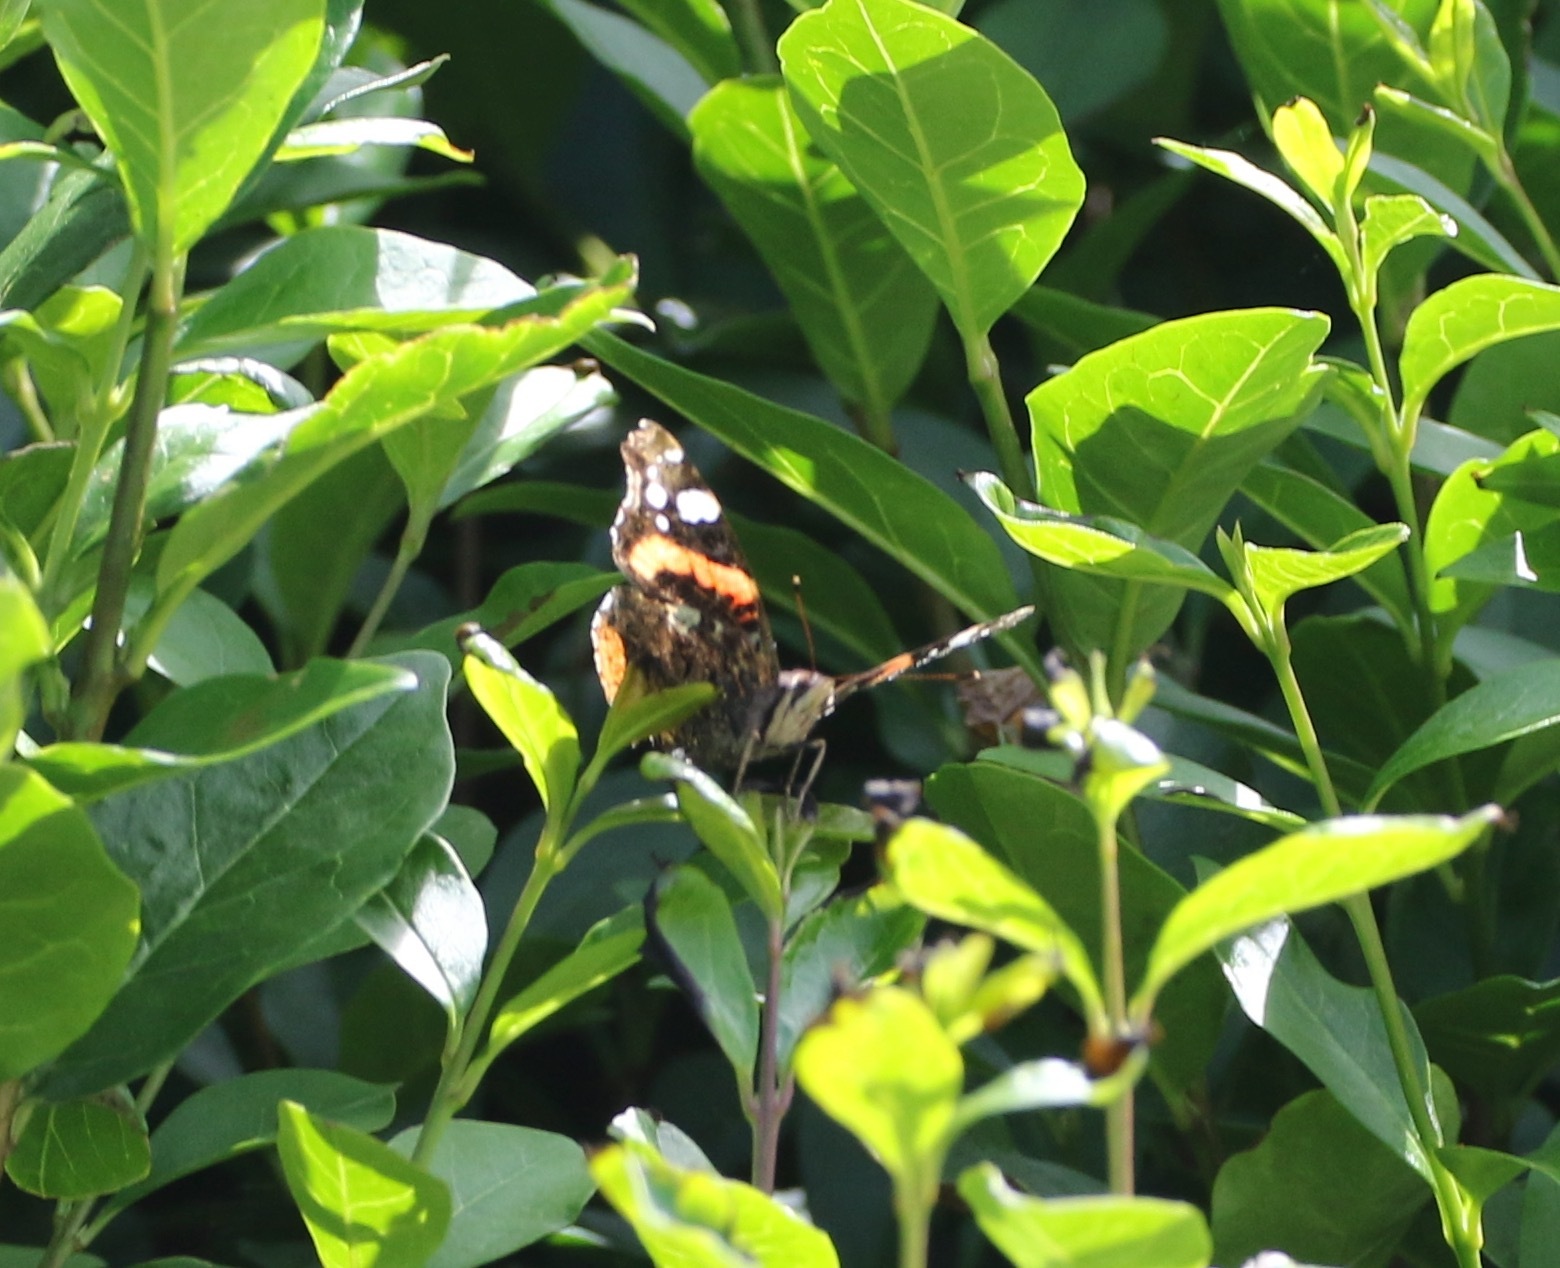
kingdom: Animalia
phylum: Arthropoda
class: Insecta
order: Lepidoptera
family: Nymphalidae
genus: Vanessa
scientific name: Vanessa atalanta
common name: Red admiral
